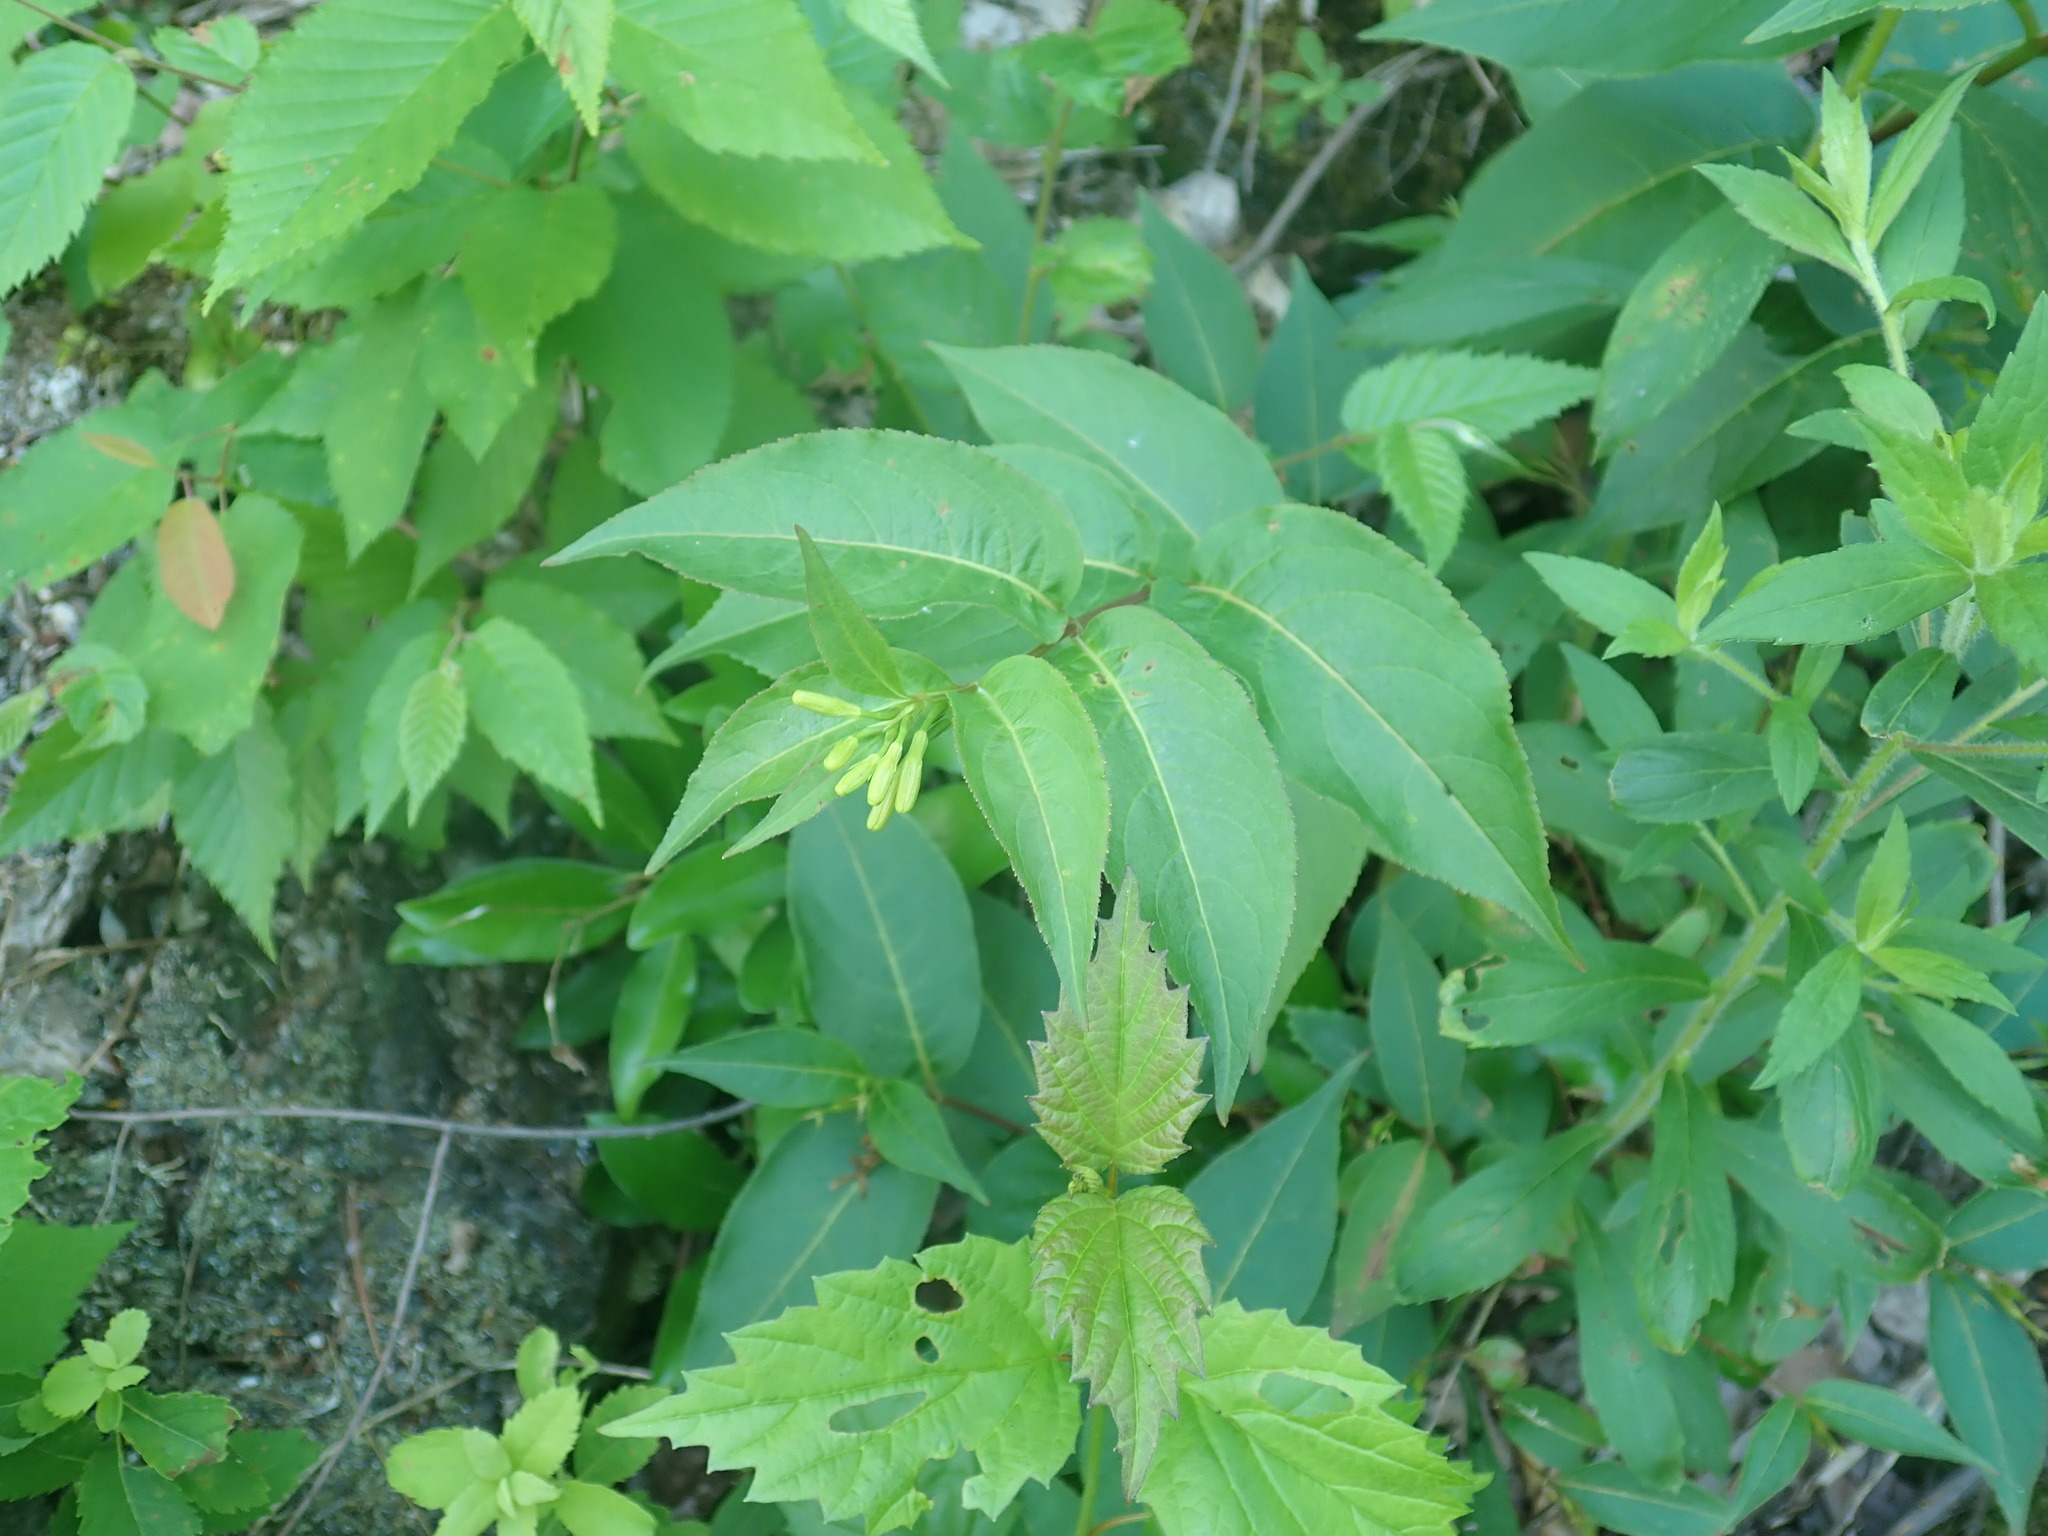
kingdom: Plantae
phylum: Tracheophyta
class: Magnoliopsida
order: Dipsacales
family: Caprifoliaceae
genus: Diervilla
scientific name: Diervilla lonicera
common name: Bush-honeysuckle
